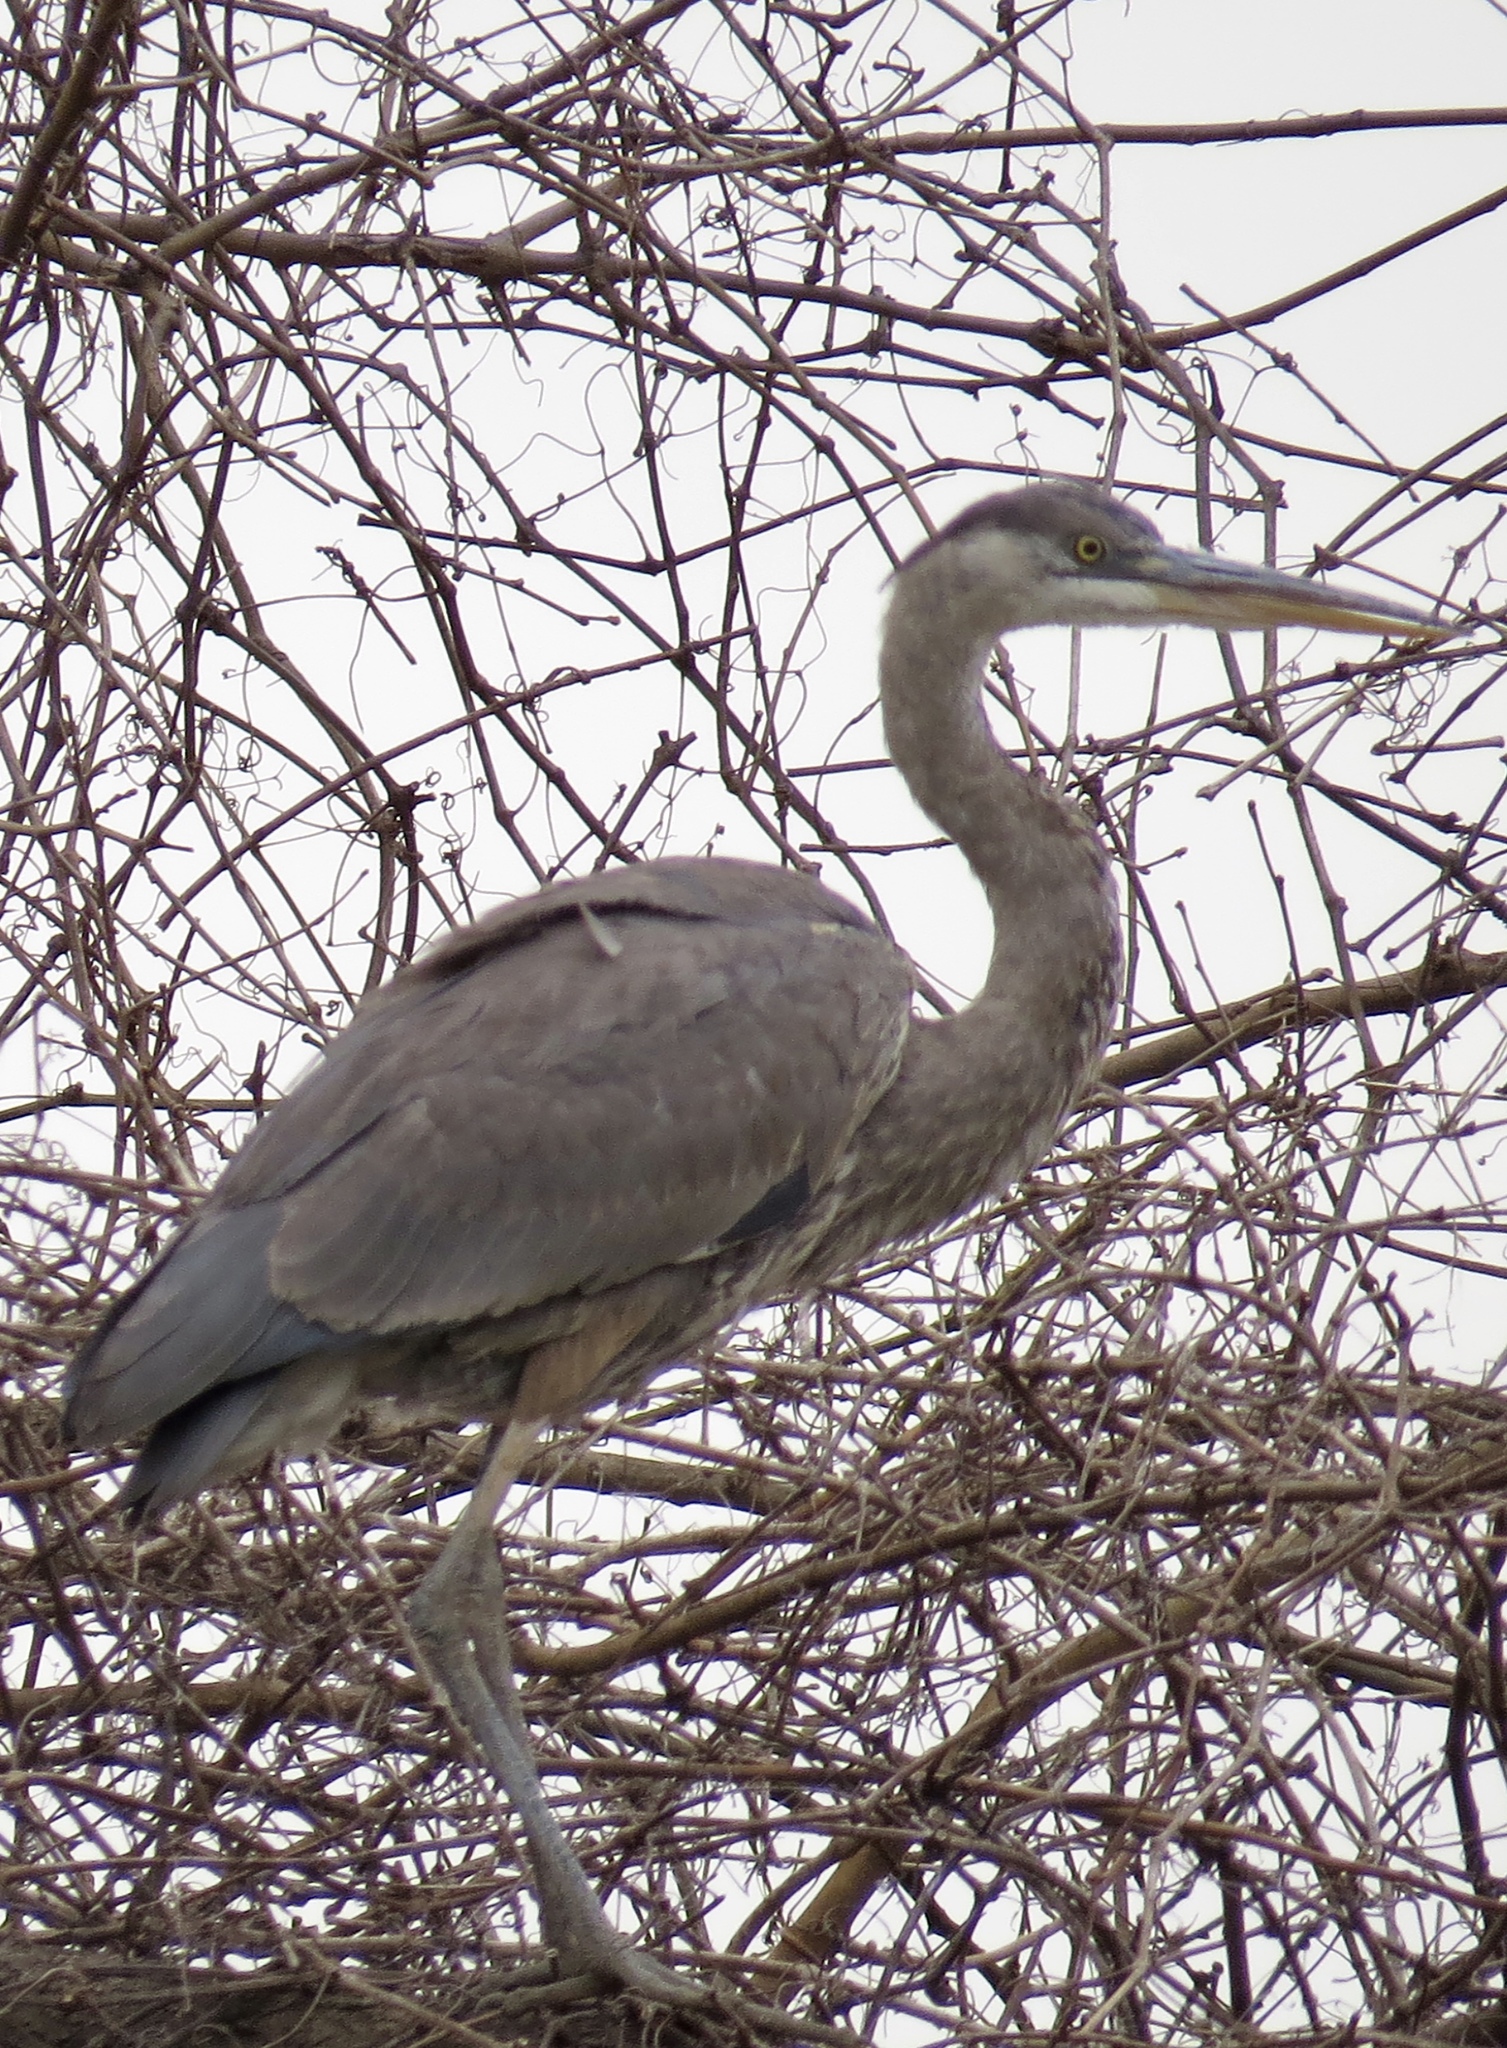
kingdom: Animalia
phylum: Chordata
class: Aves
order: Pelecaniformes
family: Ardeidae
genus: Ardea
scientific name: Ardea herodias
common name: Great blue heron
